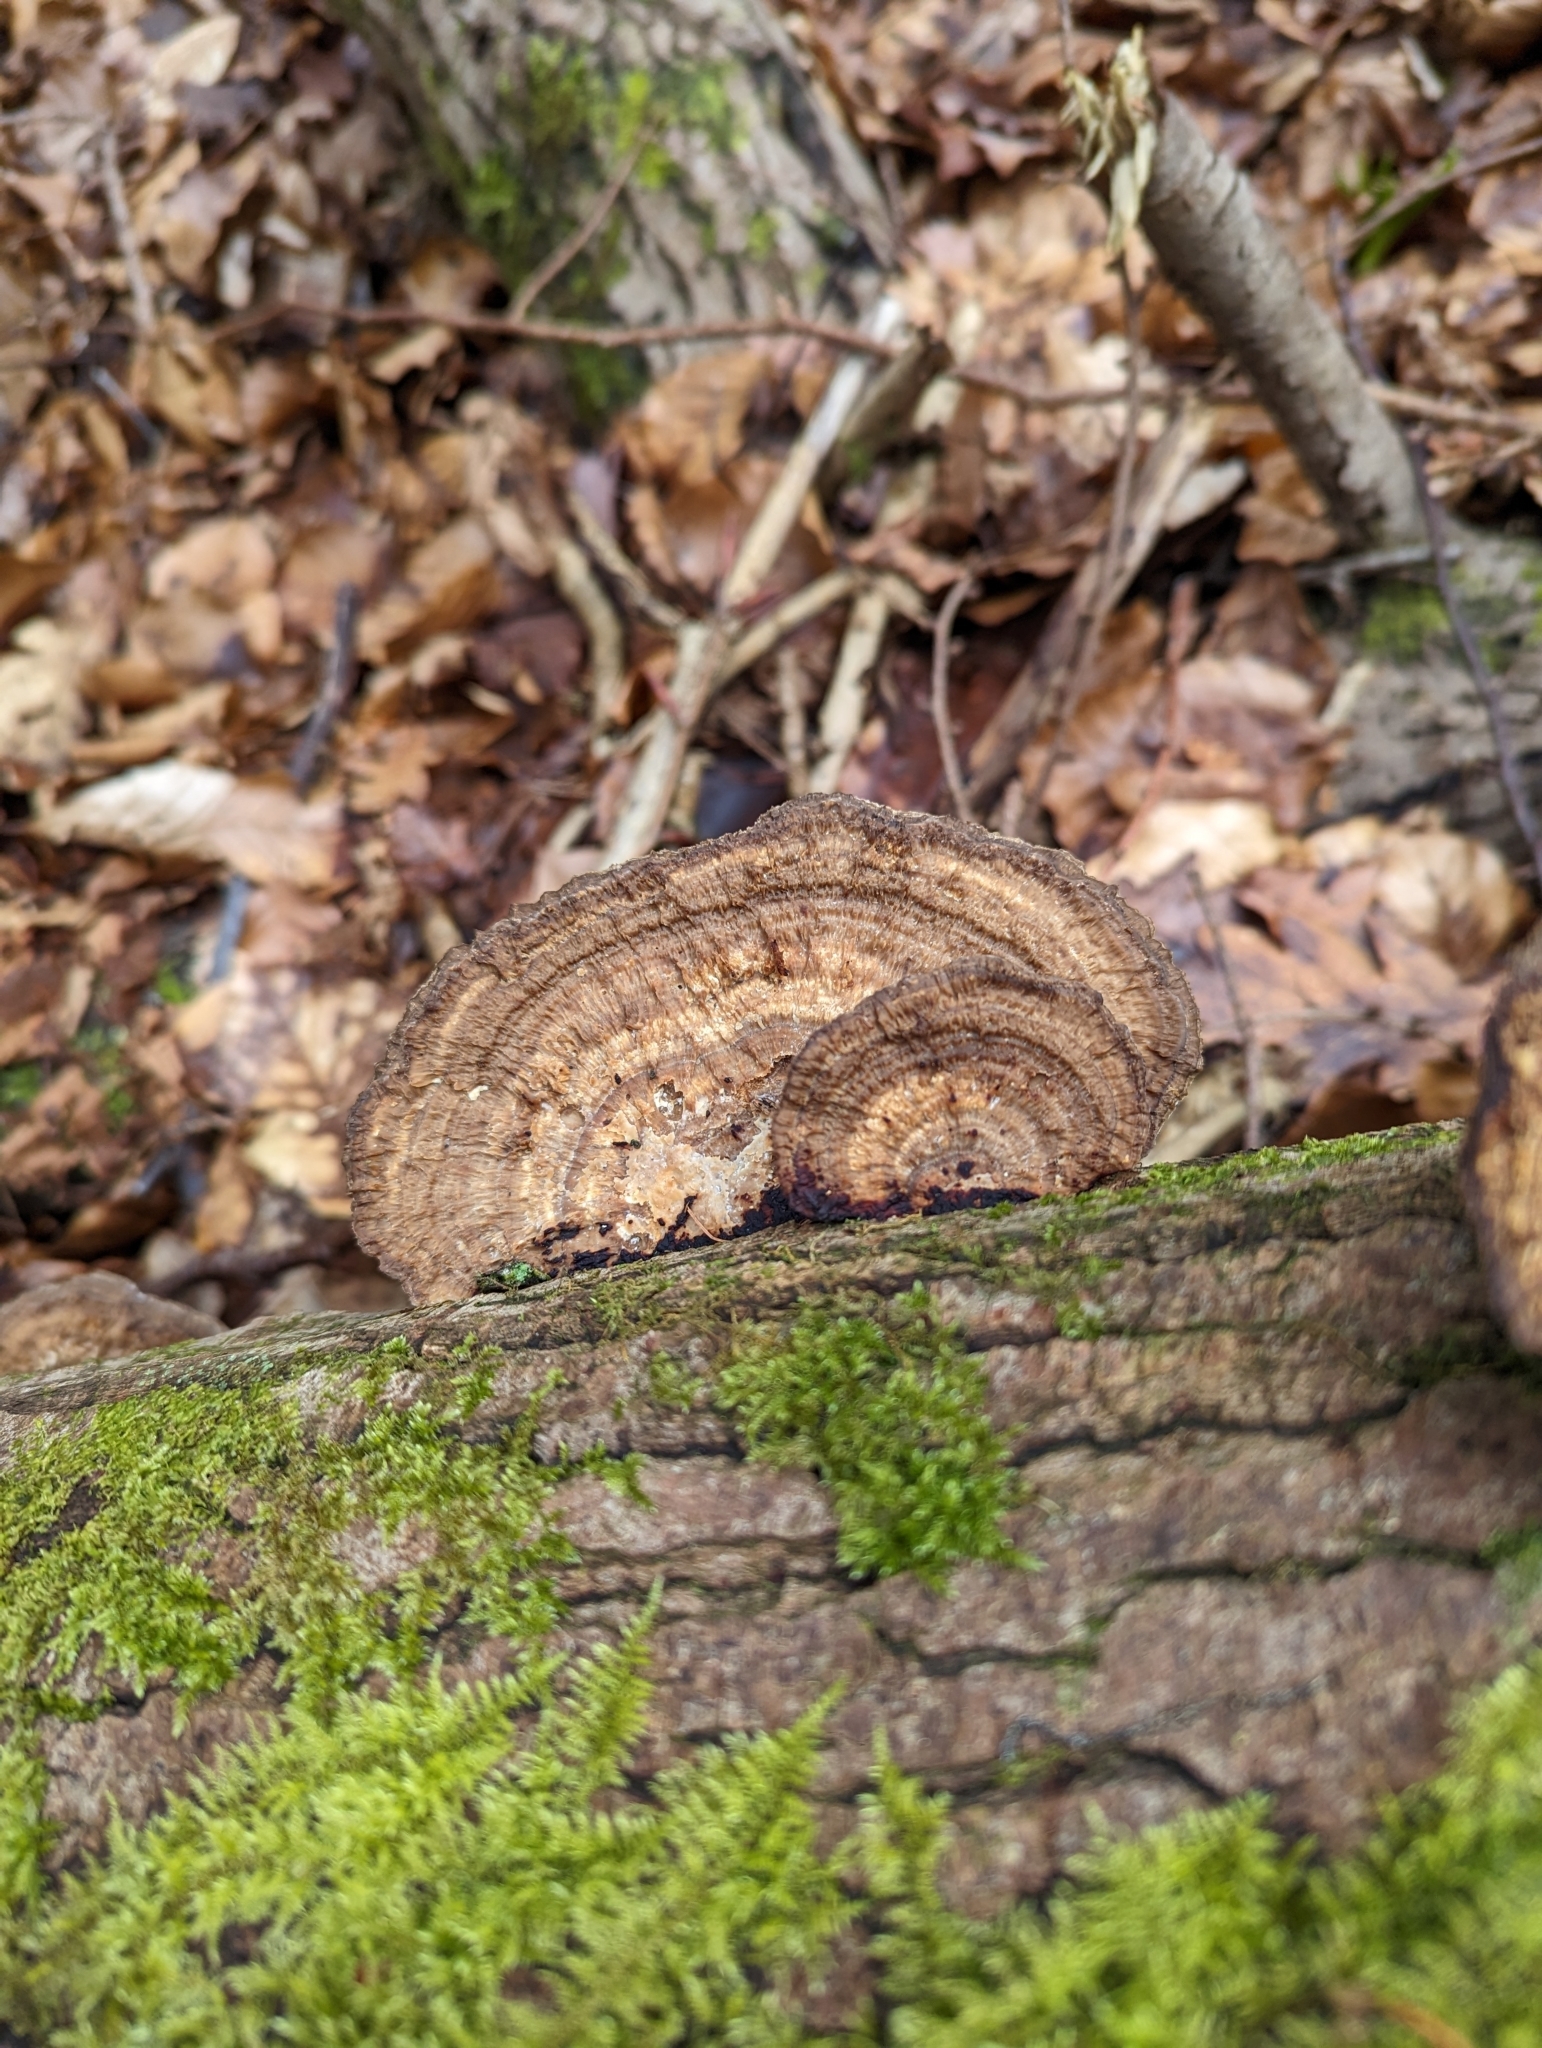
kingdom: Fungi
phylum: Basidiomycota
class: Agaricomycetes
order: Polyporales
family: Polyporaceae
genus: Daedaleopsis
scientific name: Daedaleopsis confragosa
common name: Blushing bracket
